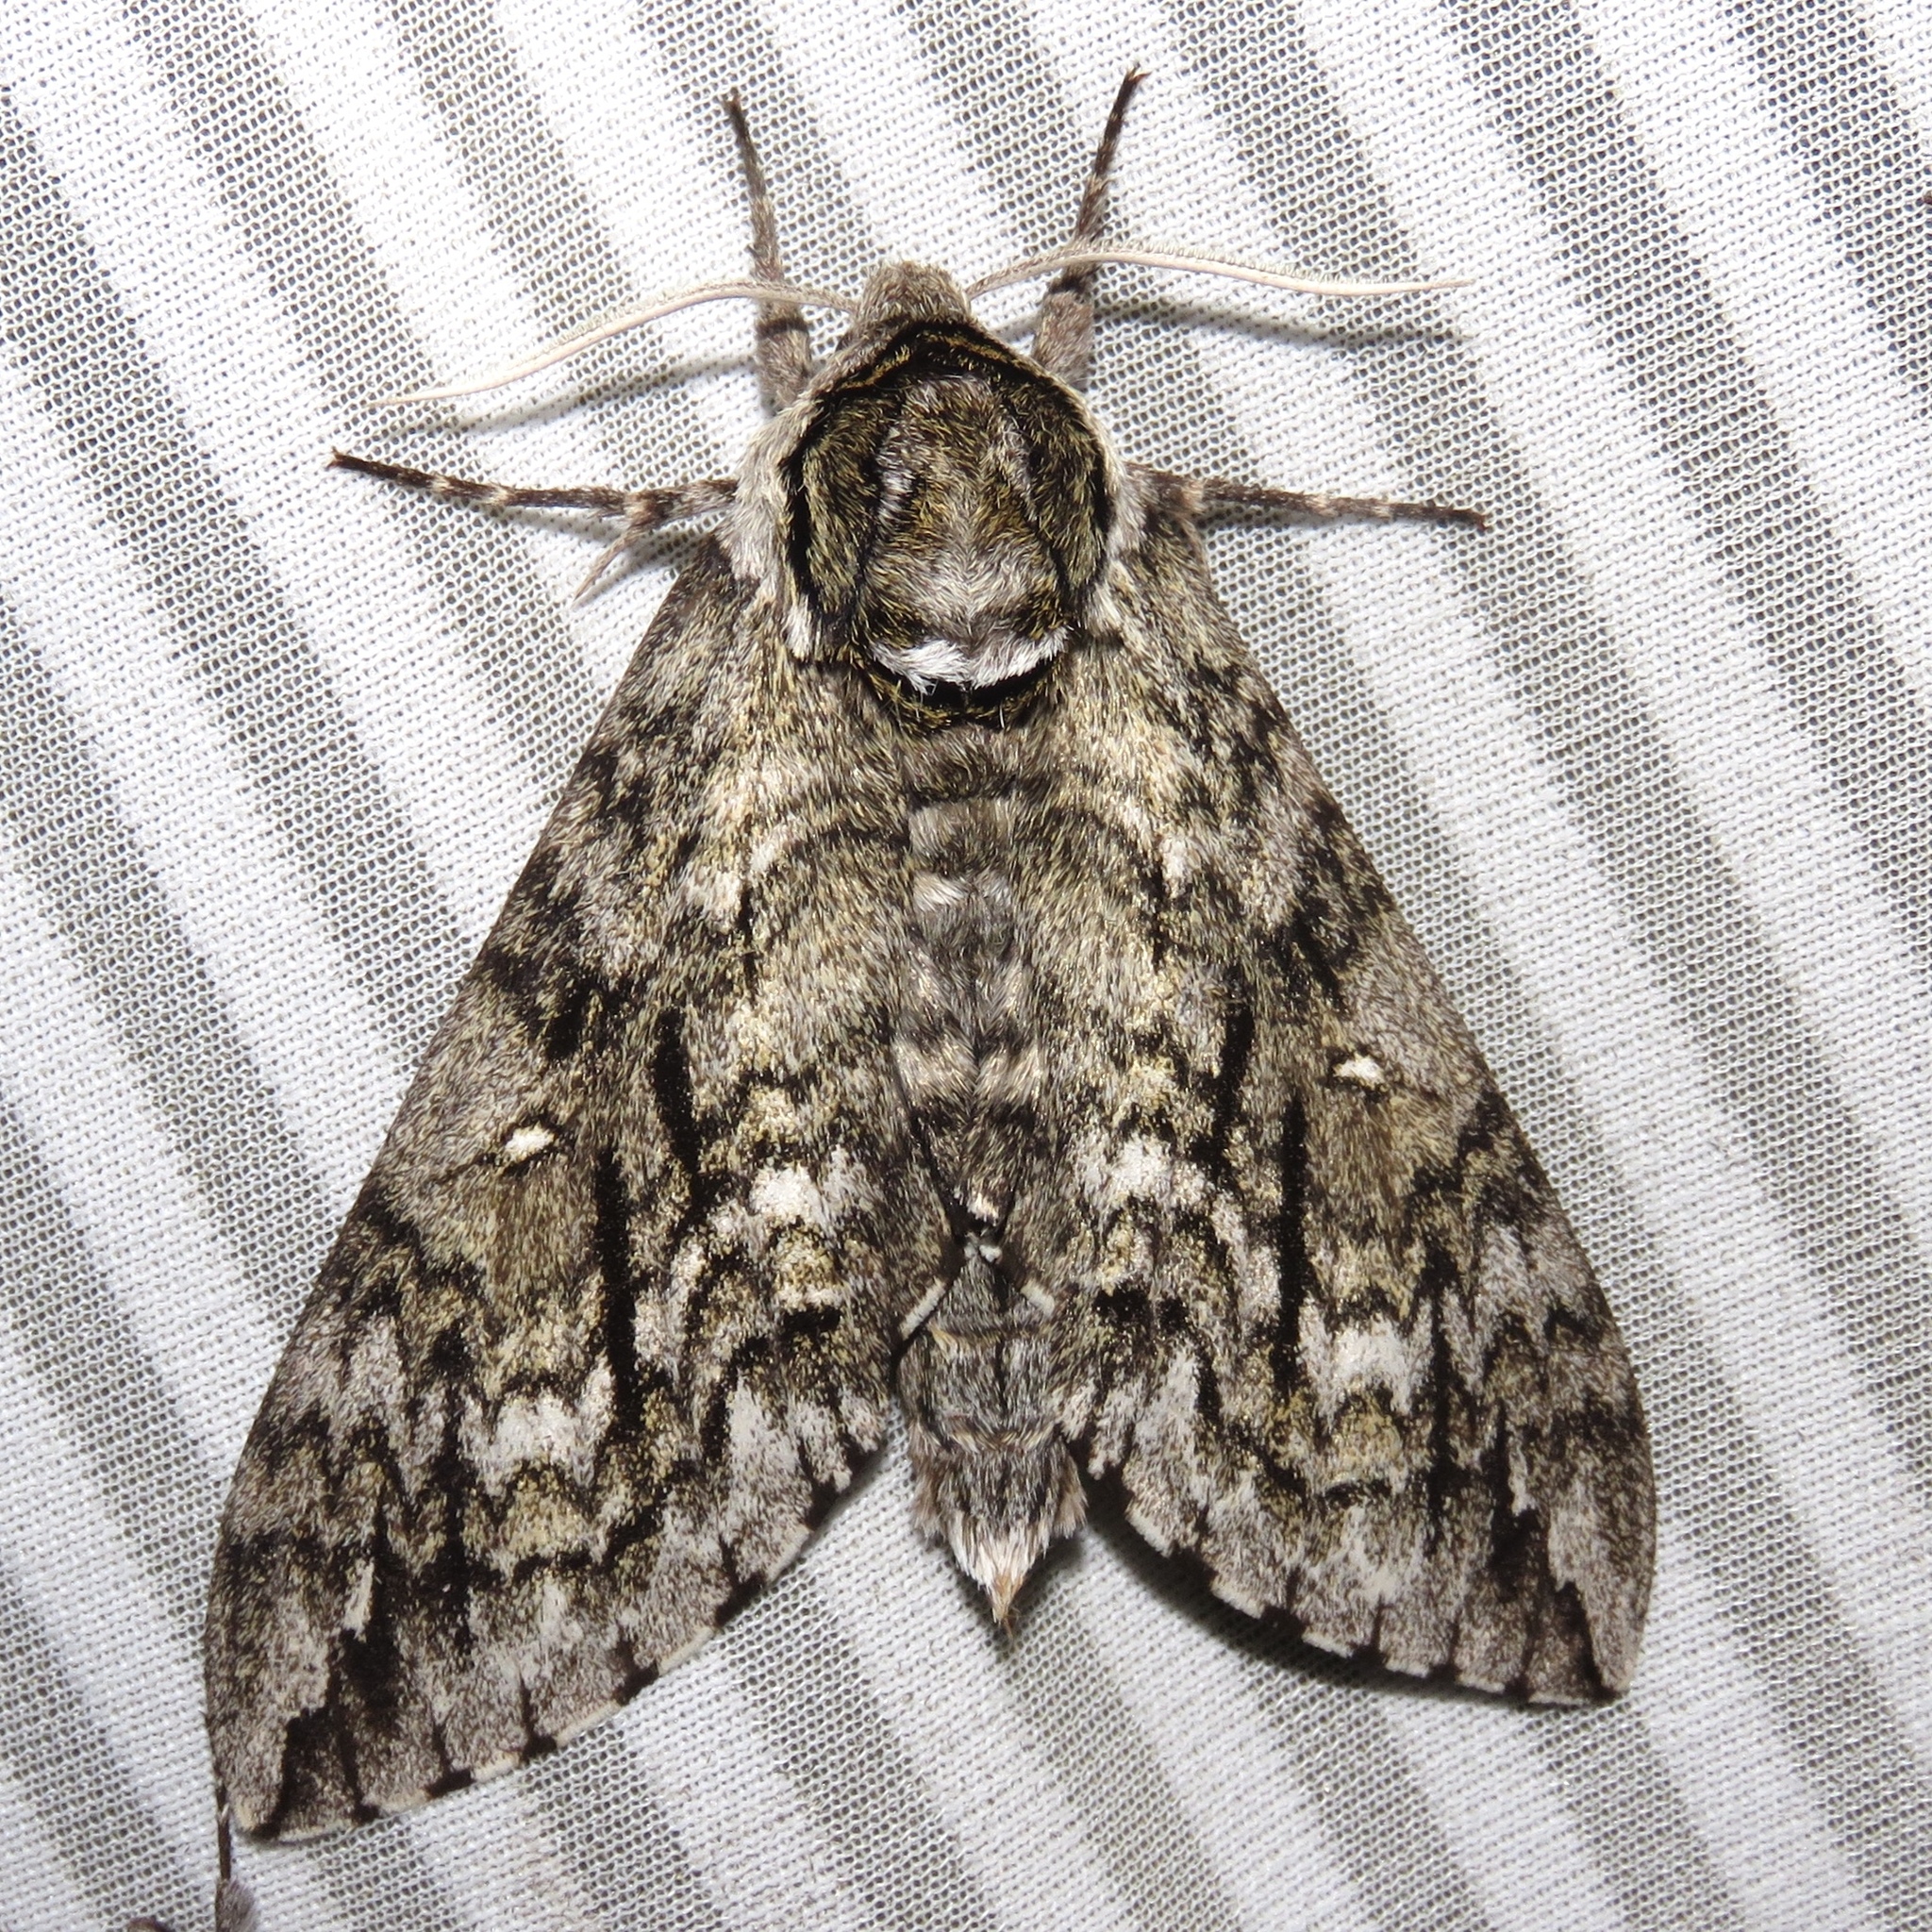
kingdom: Animalia
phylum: Arthropoda
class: Insecta
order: Lepidoptera
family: Sphingidae
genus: Ceratomia
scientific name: Ceratomia undulosa
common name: Waved sphinx
